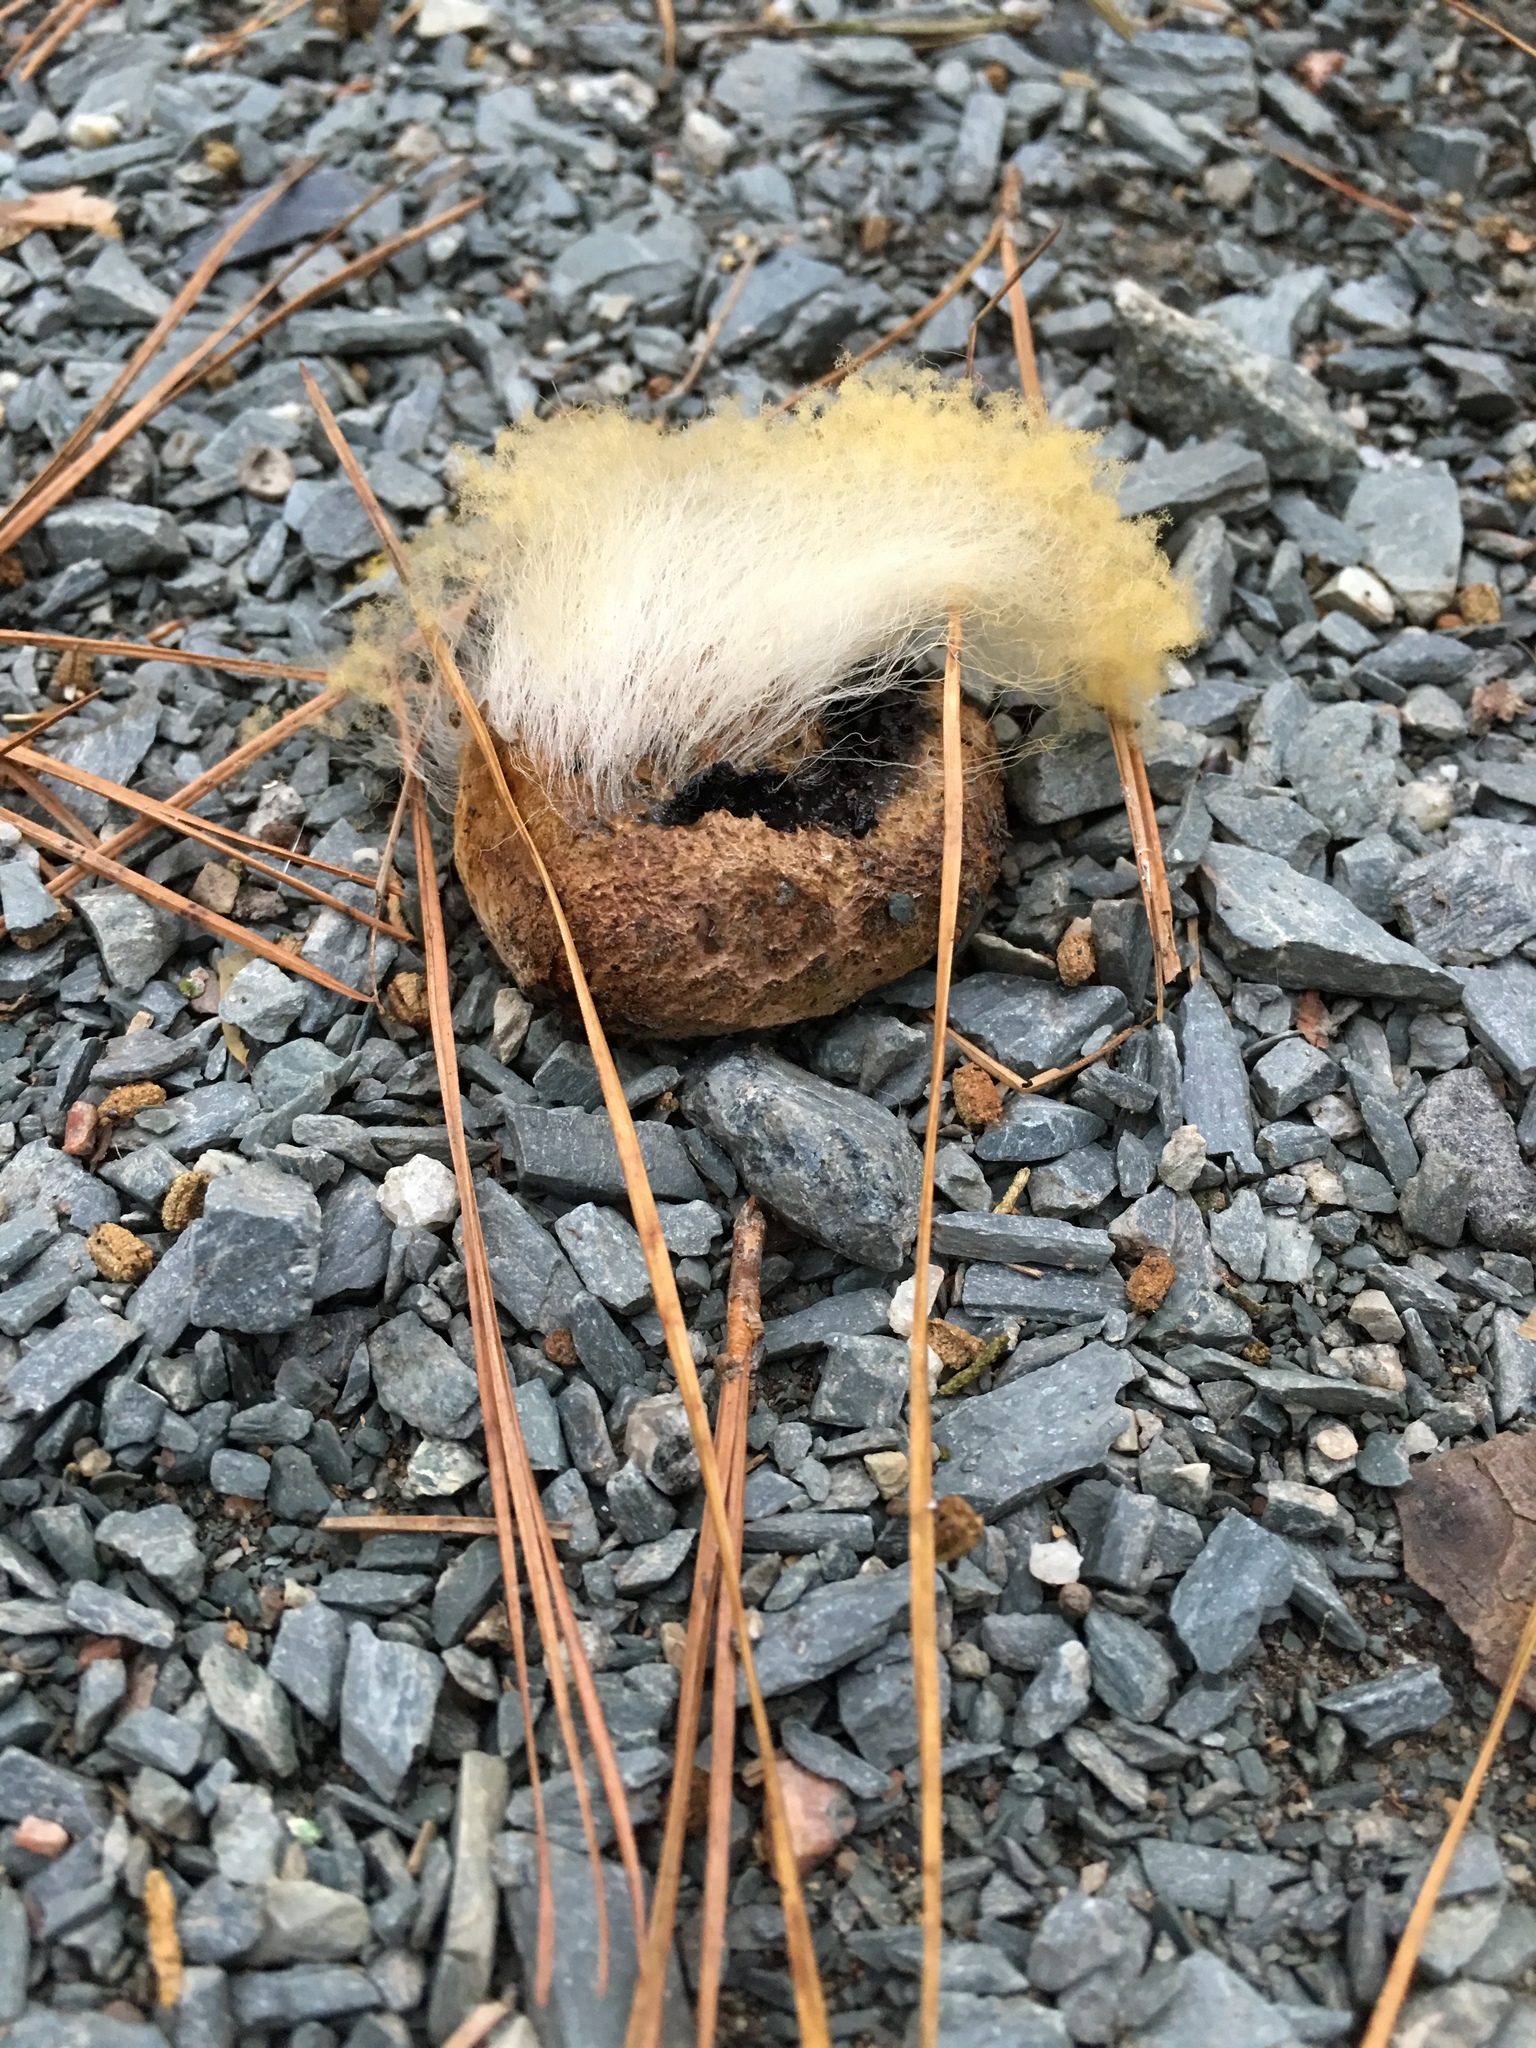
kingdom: Fungi
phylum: Mucoromycota
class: Mucoromycetes
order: Mucorales
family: Rhizopodaceae
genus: Syzygites
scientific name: Syzygites megalocarpus
